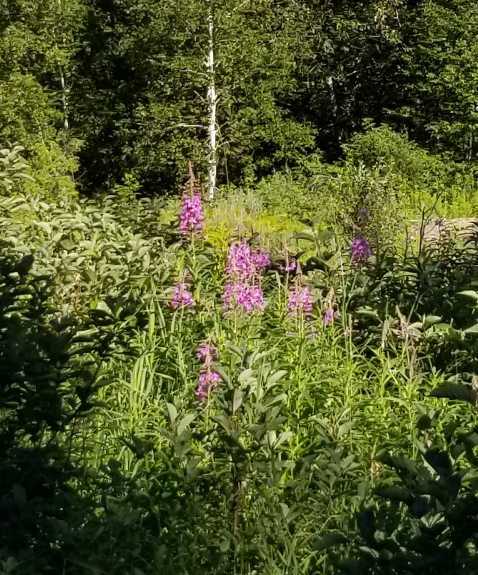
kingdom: Plantae
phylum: Tracheophyta
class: Magnoliopsida
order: Myrtales
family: Onagraceae
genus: Chamaenerion
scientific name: Chamaenerion angustifolium
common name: Fireweed
